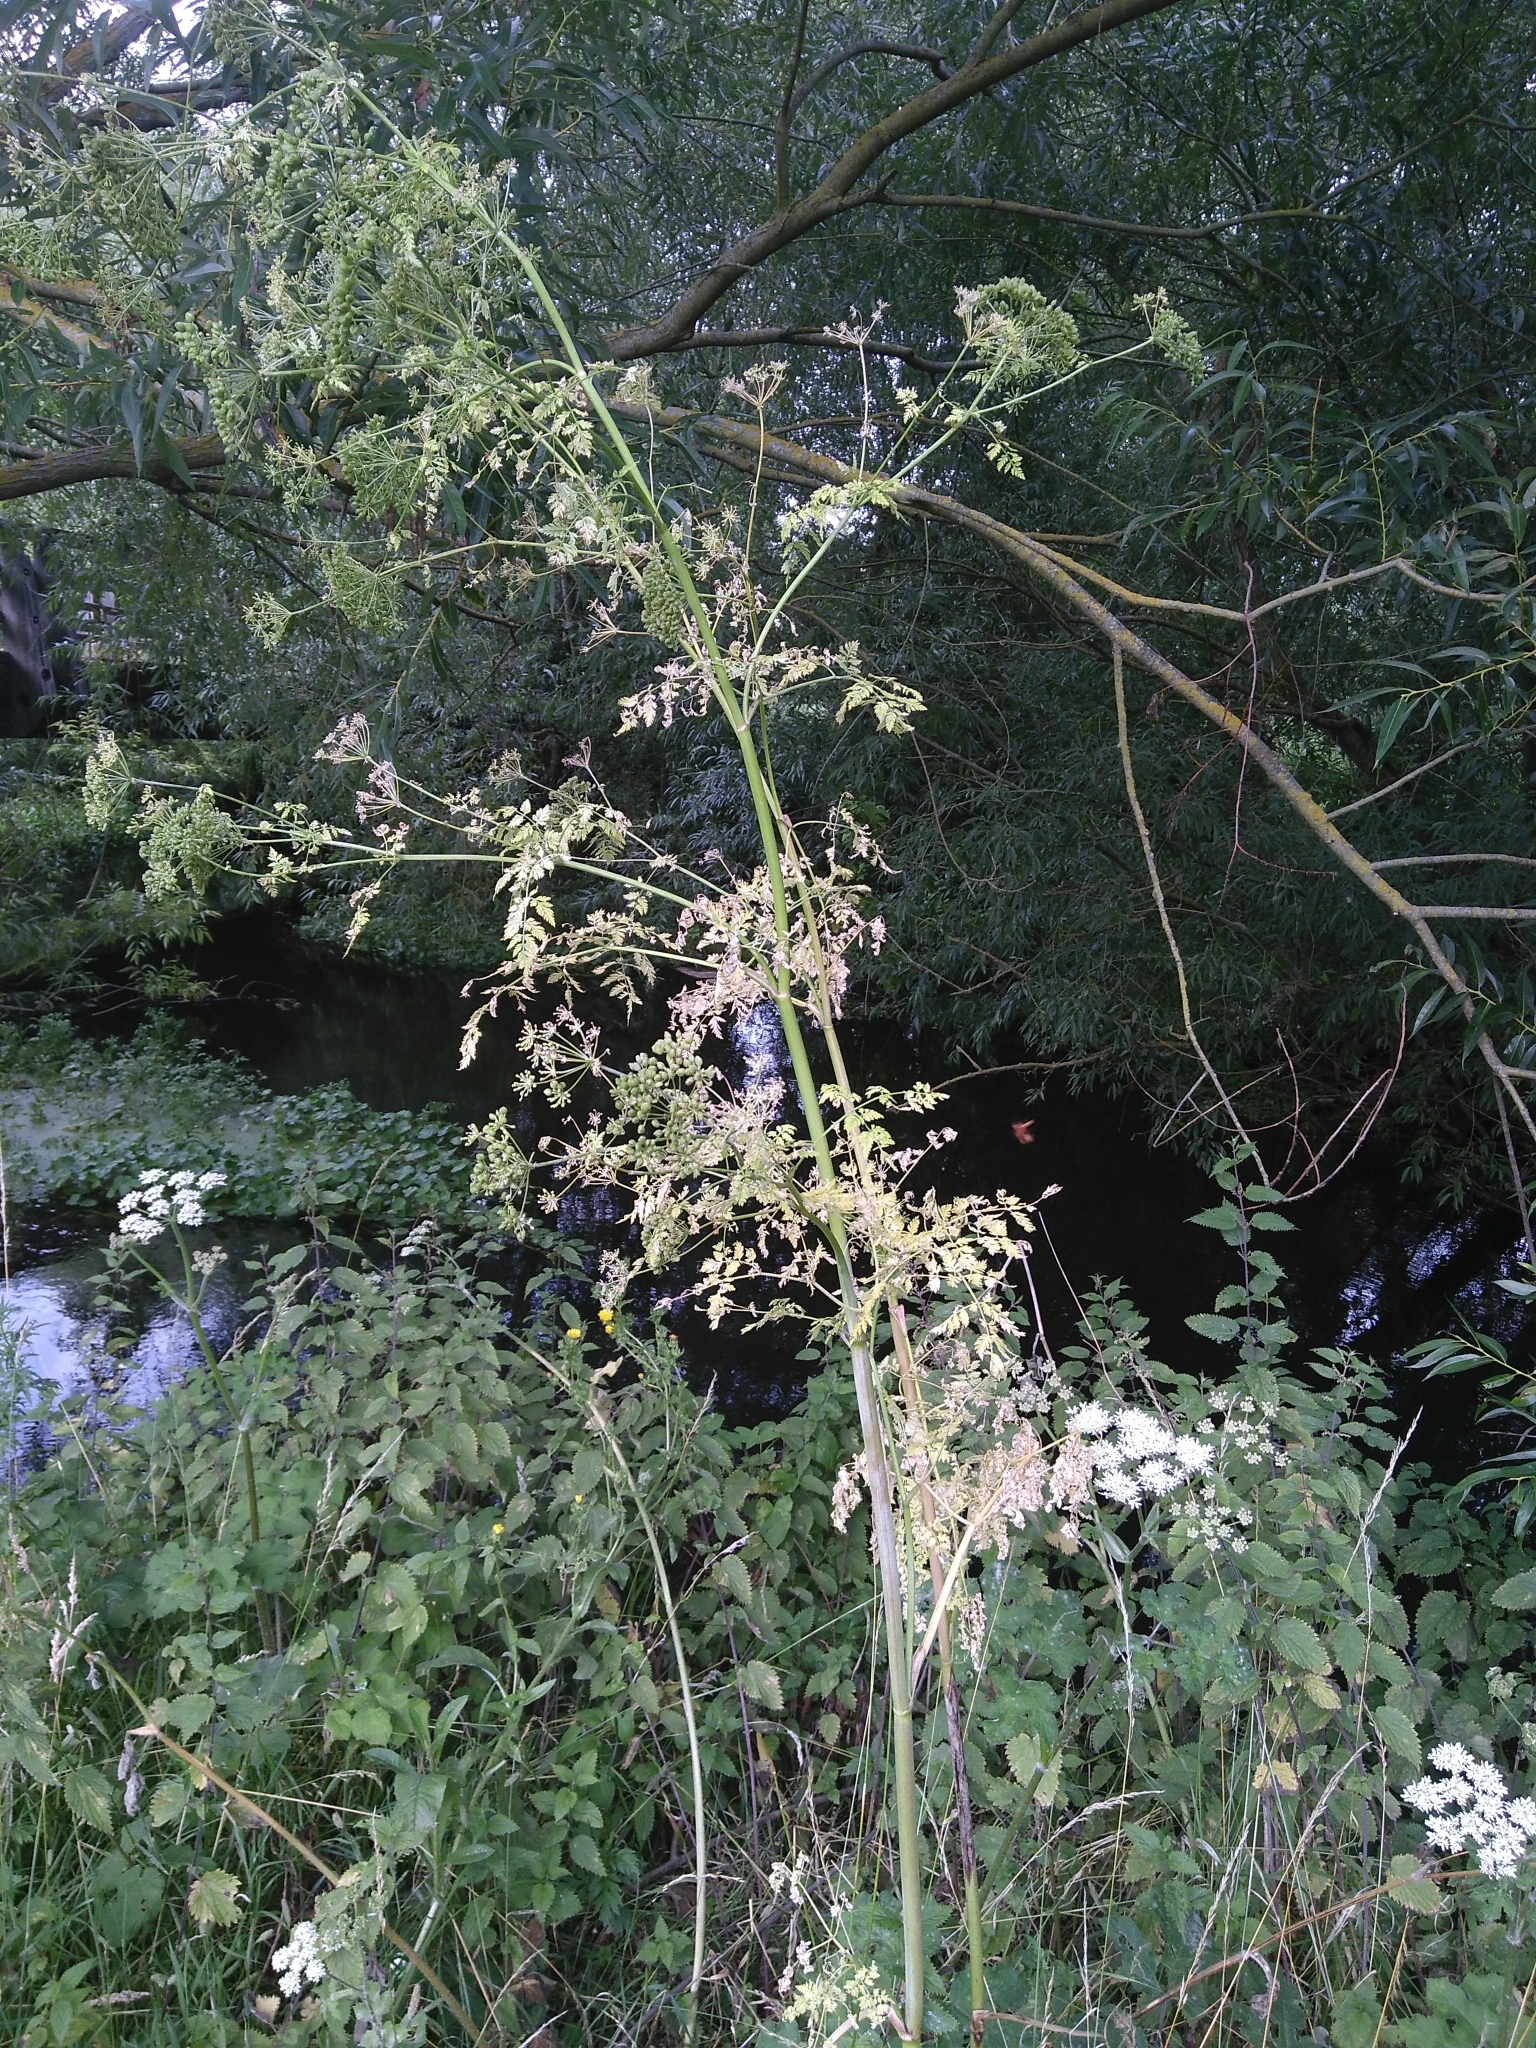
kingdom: Plantae
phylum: Tracheophyta
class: Magnoliopsida
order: Apiales
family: Apiaceae
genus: Conium
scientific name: Conium maculatum
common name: Hemlock
